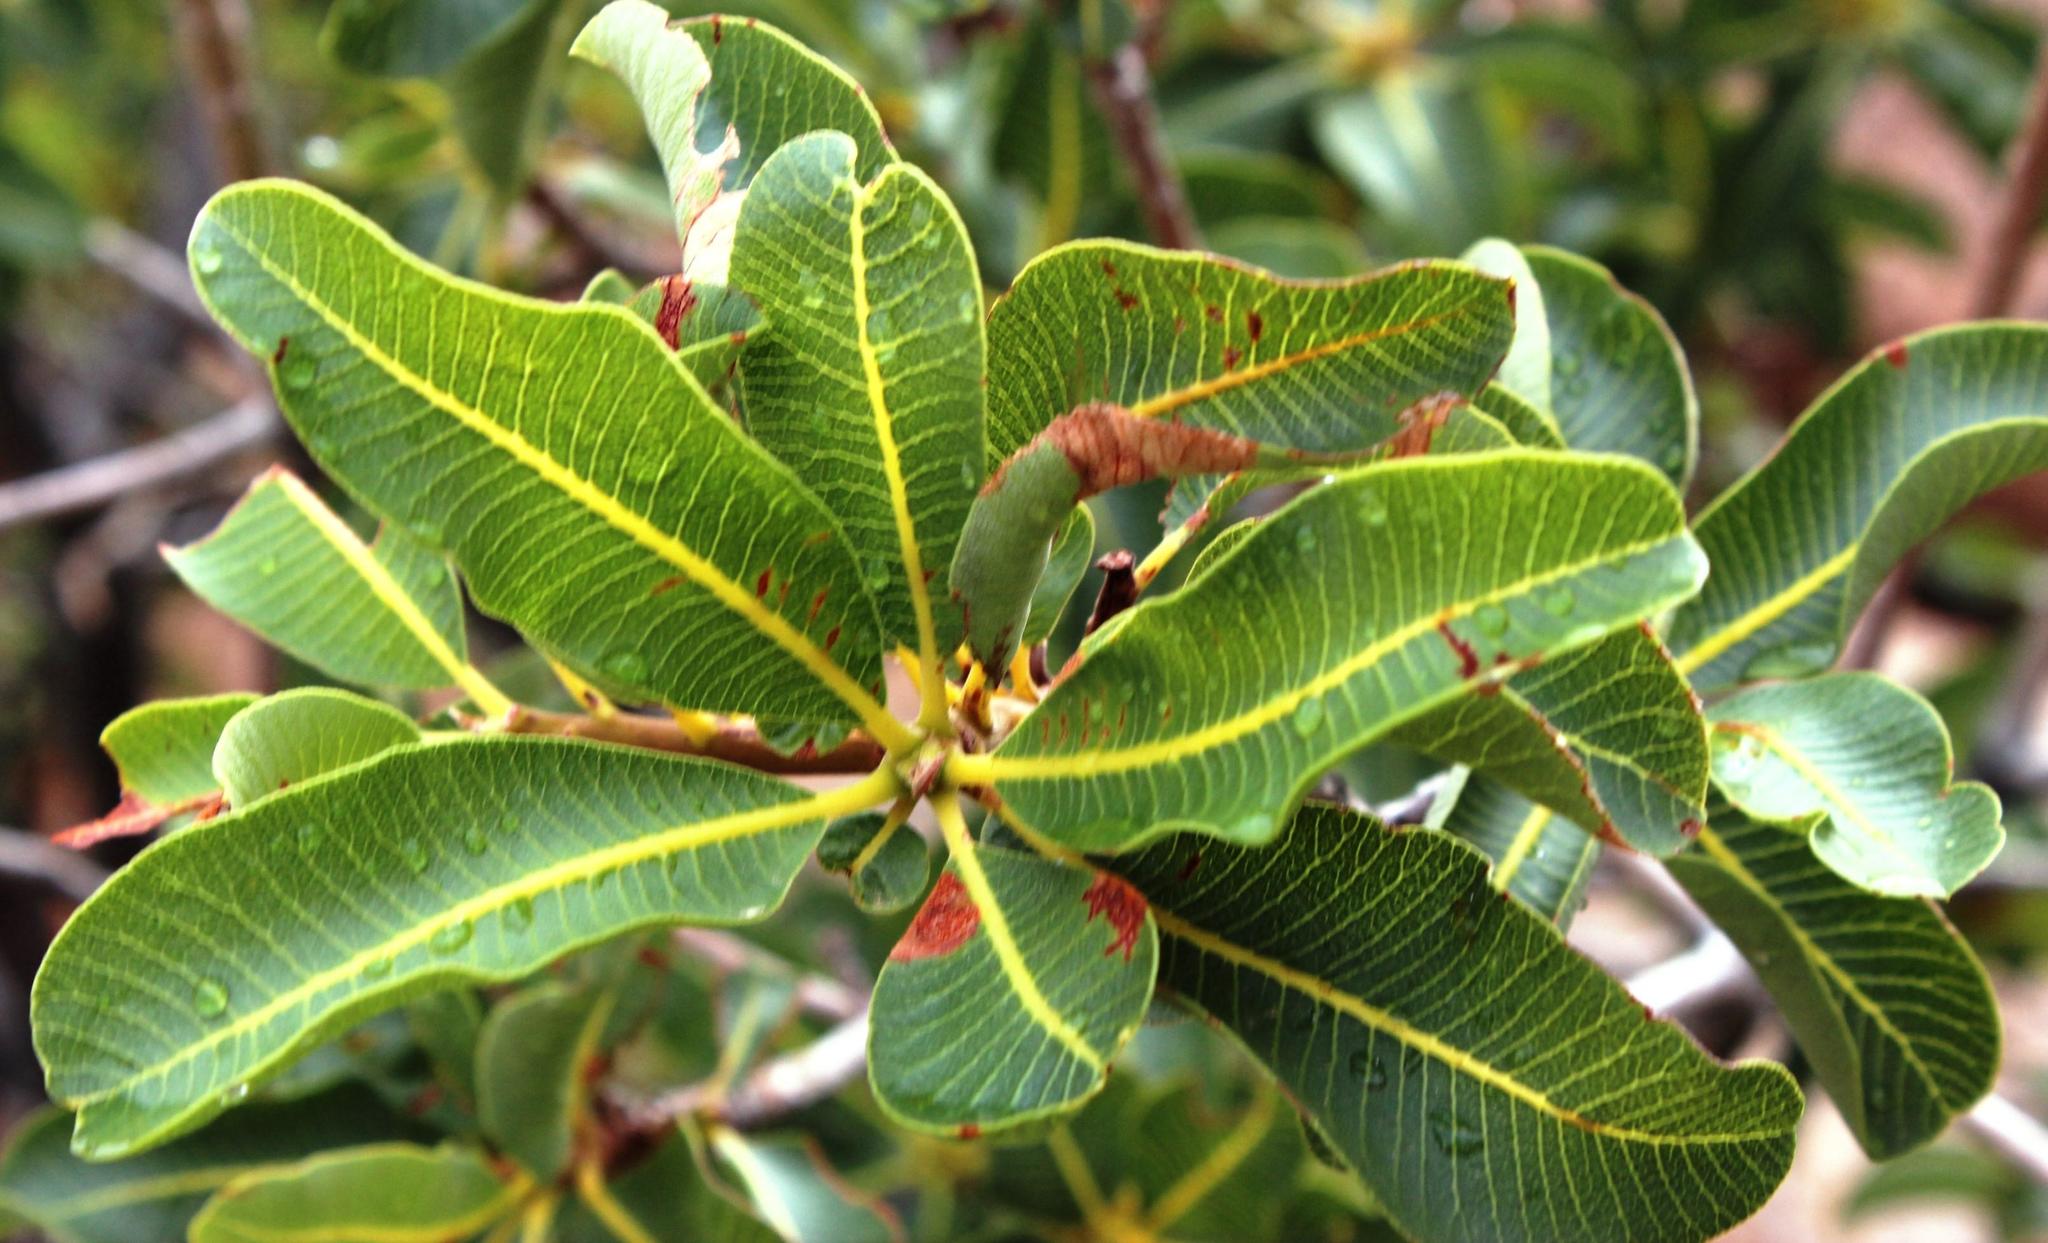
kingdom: Plantae
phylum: Tracheophyta
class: Magnoliopsida
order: Sapindales
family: Anacardiaceae
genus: Ozoroa
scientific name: Ozoroa dispar
